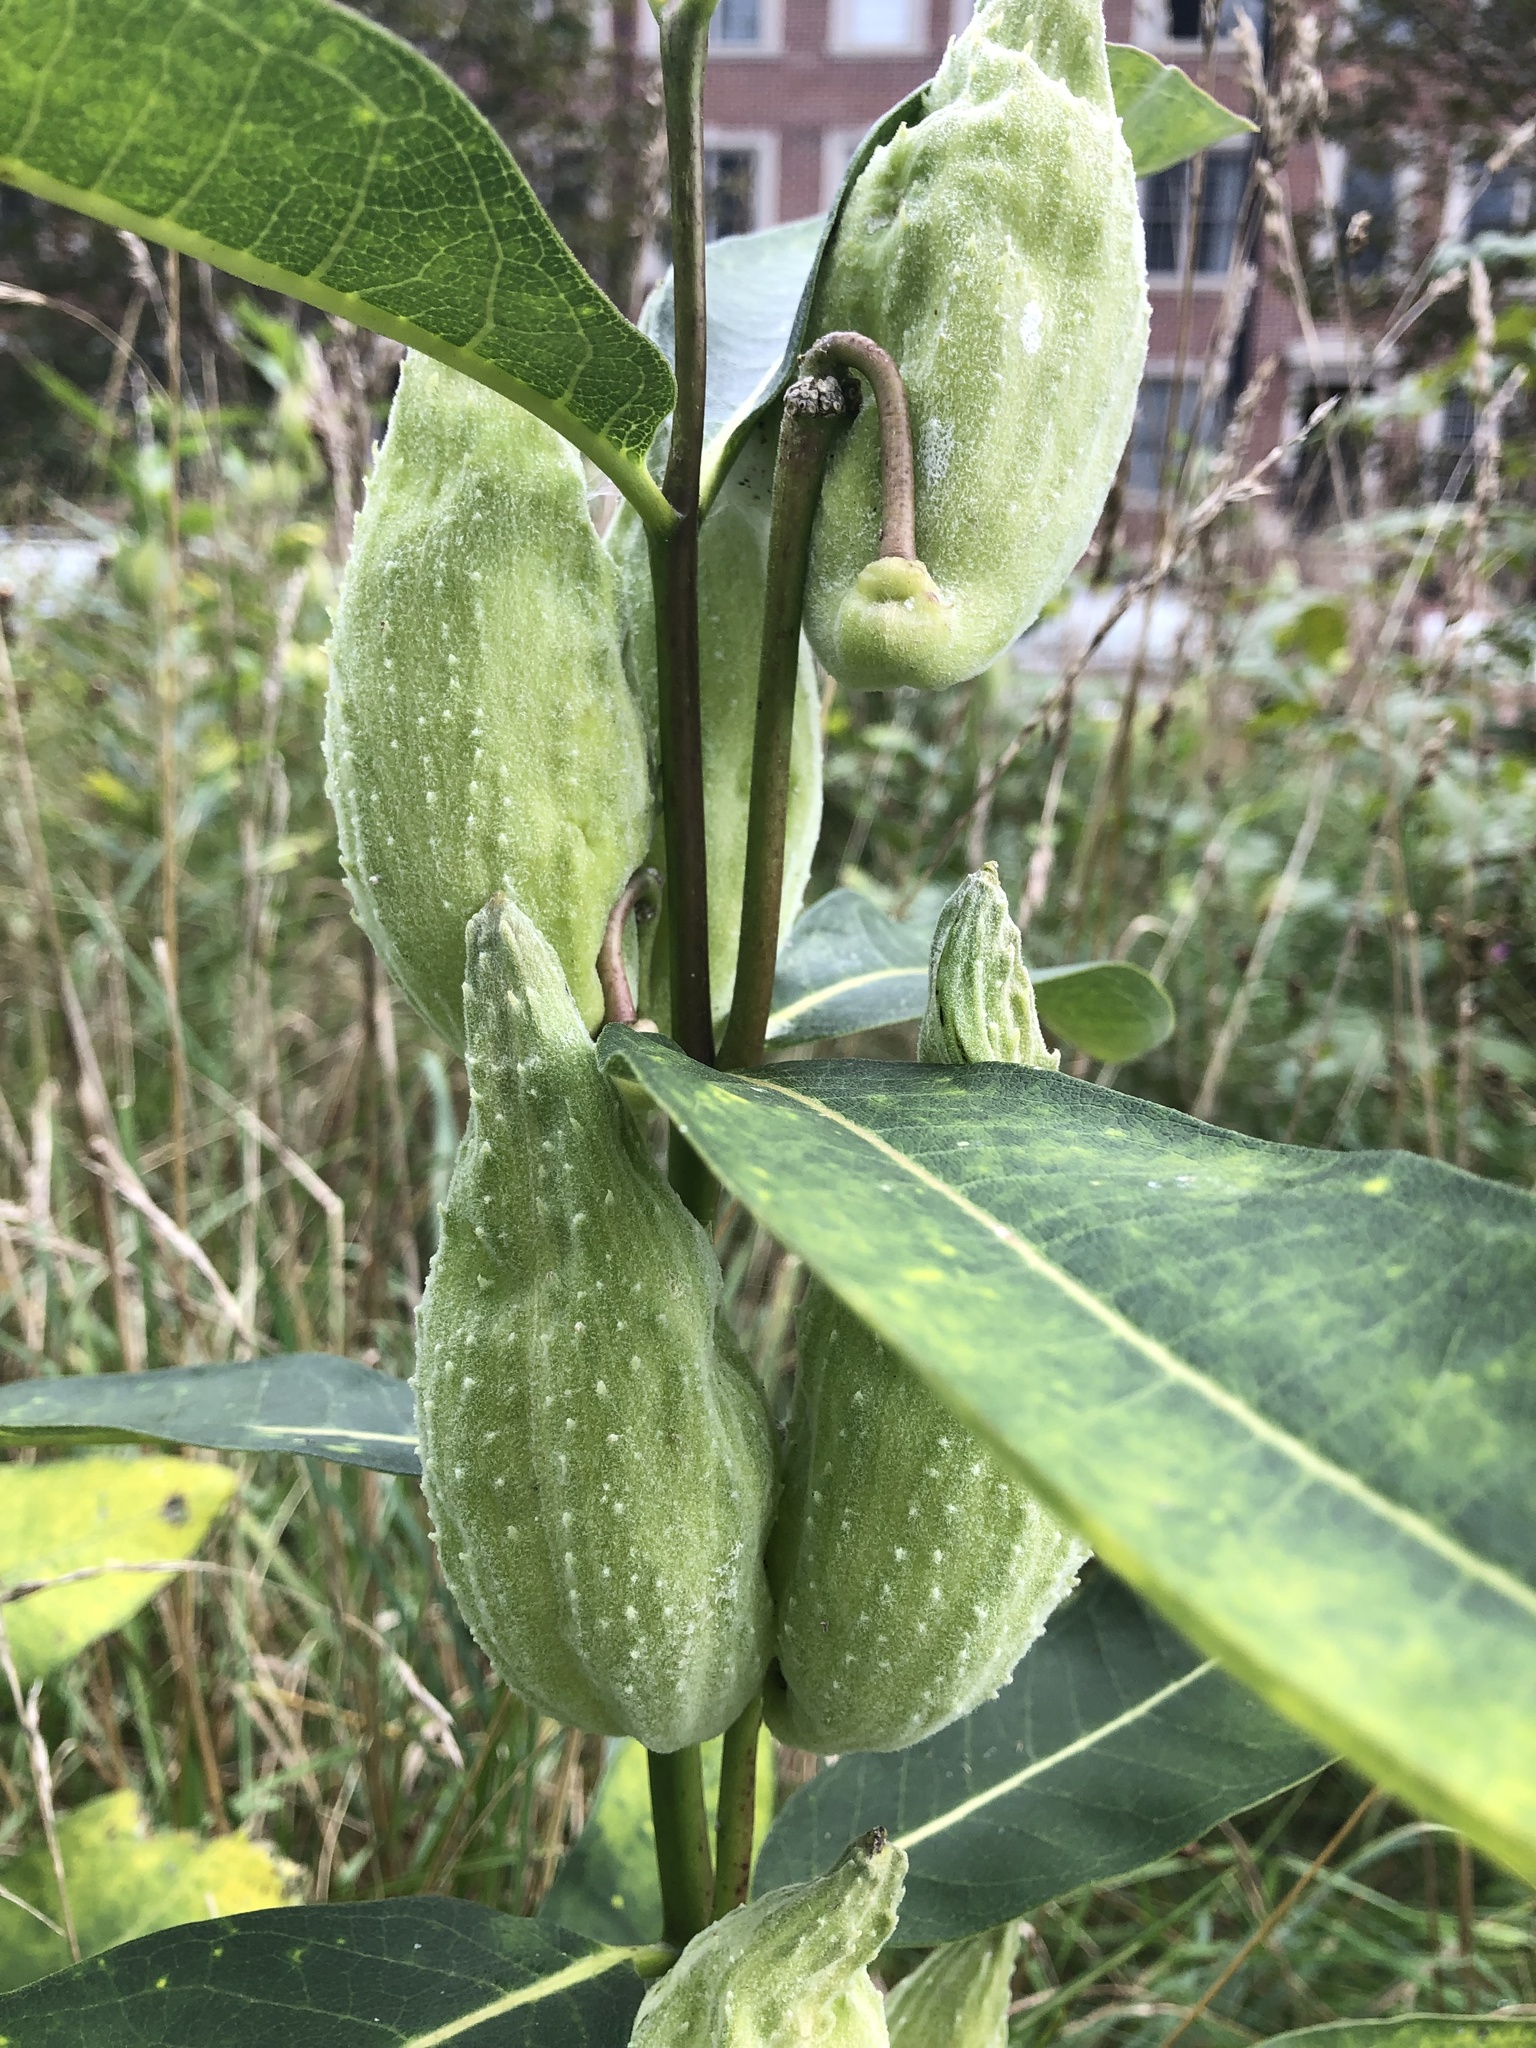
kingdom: Plantae
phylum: Tracheophyta
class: Magnoliopsida
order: Gentianales
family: Apocynaceae
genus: Asclepias
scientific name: Asclepias syriaca
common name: Common milkweed
